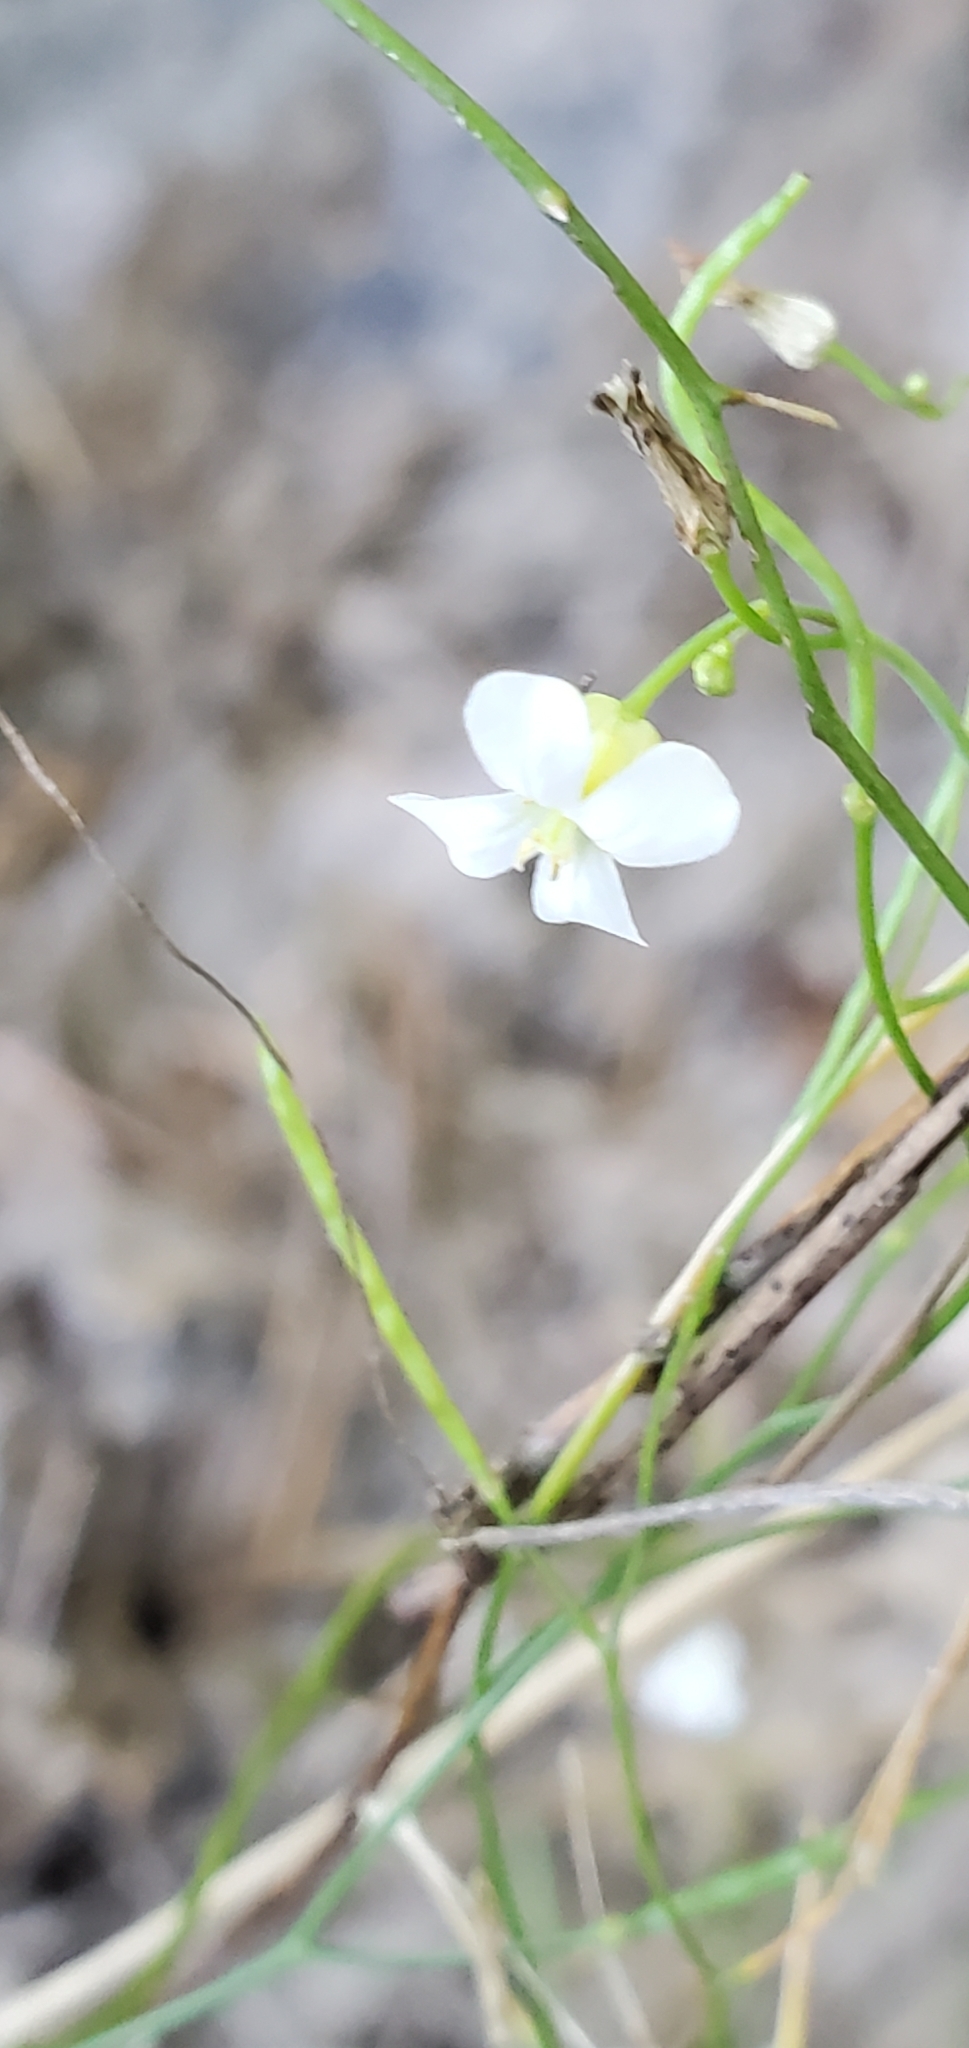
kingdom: Plantae
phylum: Tracheophyta
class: Magnoliopsida
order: Brassicales
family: Brassicaceae
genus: Arabidopsis
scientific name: Arabidopsis lyrata
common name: Lyrate rockcress
